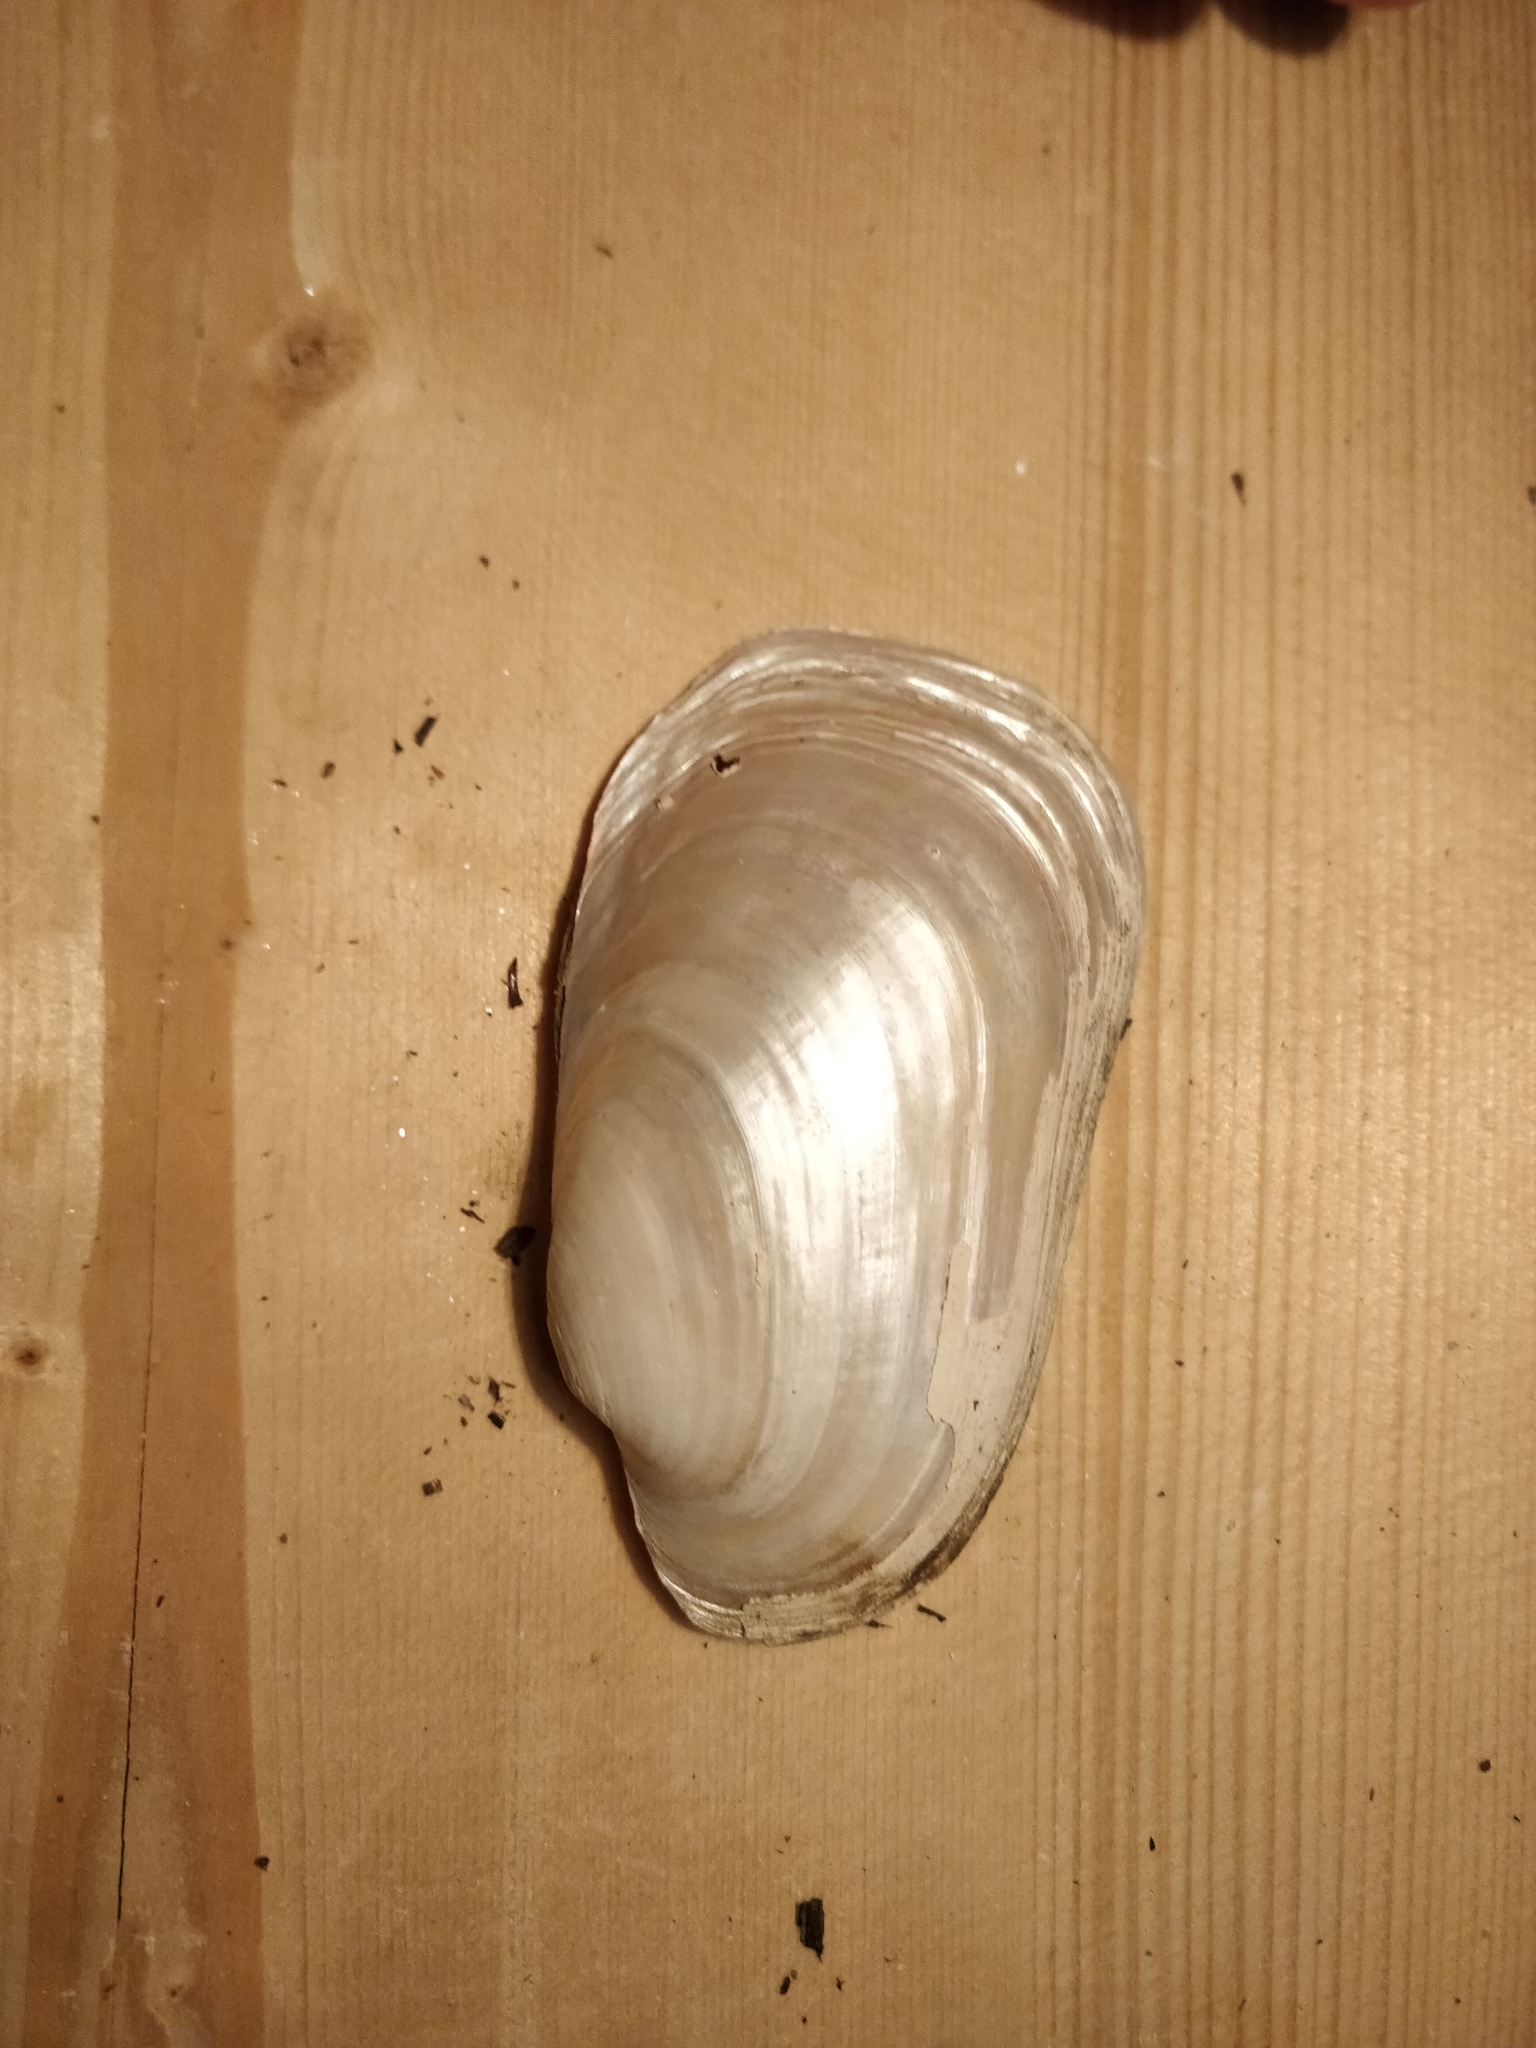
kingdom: Animalia
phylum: Mollusca
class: Bivalvia
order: Unionida
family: Unionidae
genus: Lampsilis
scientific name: Lampsilis siliquoidea
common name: Fatmucket
